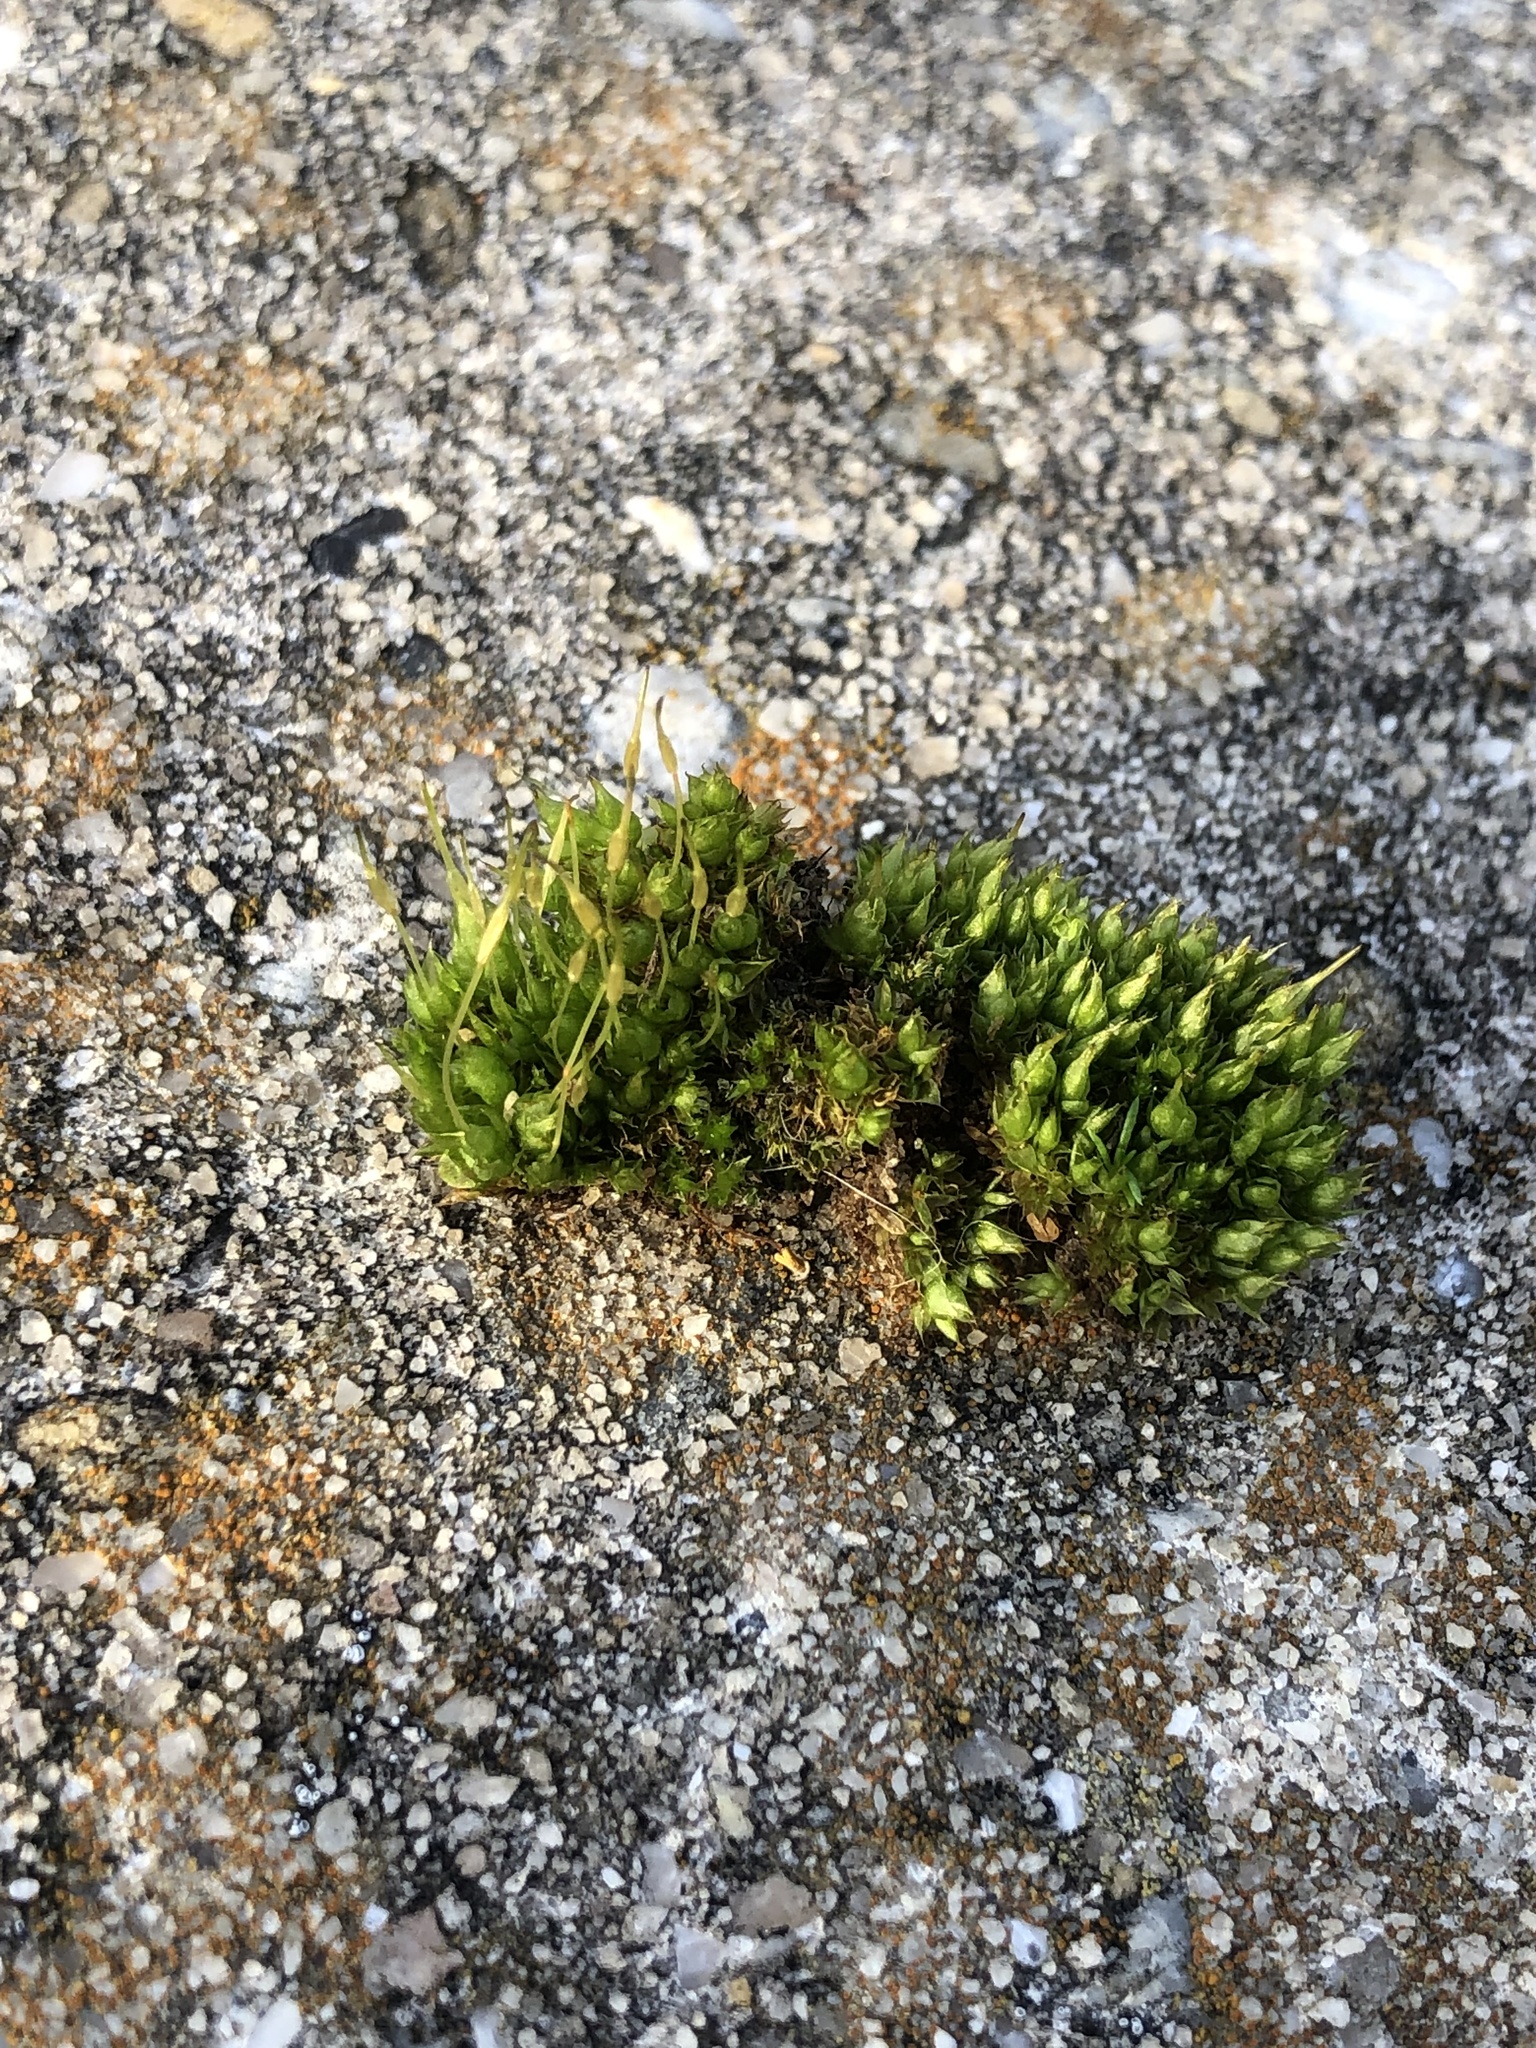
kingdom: Plantae
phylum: Bryophyta
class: Bryopsida
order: Funariales
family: Funariaceae
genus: Funaria
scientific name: Funaria hygrometrica
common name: Common cord moss
